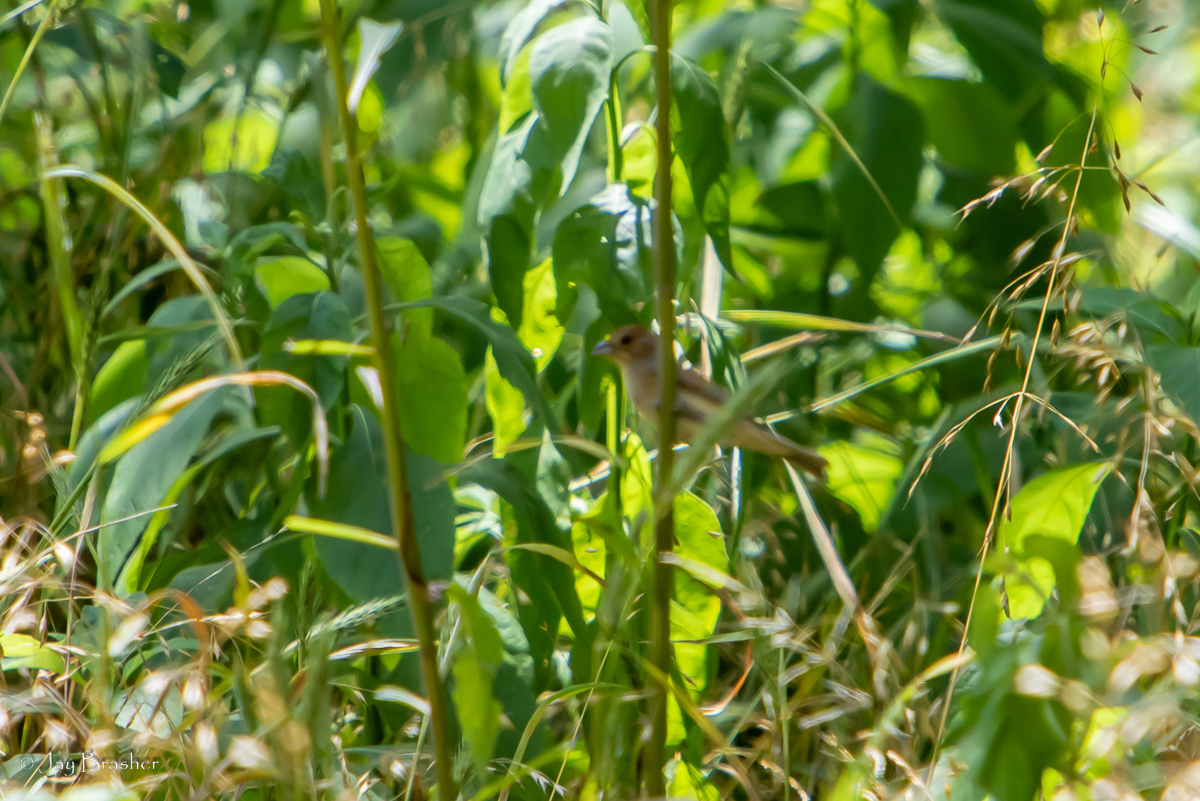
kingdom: Animalia
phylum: Chordata
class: Aves
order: Passeriformes
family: Cardinalidae
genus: Passerina
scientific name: Passerina cyanea
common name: Indigo bunting
